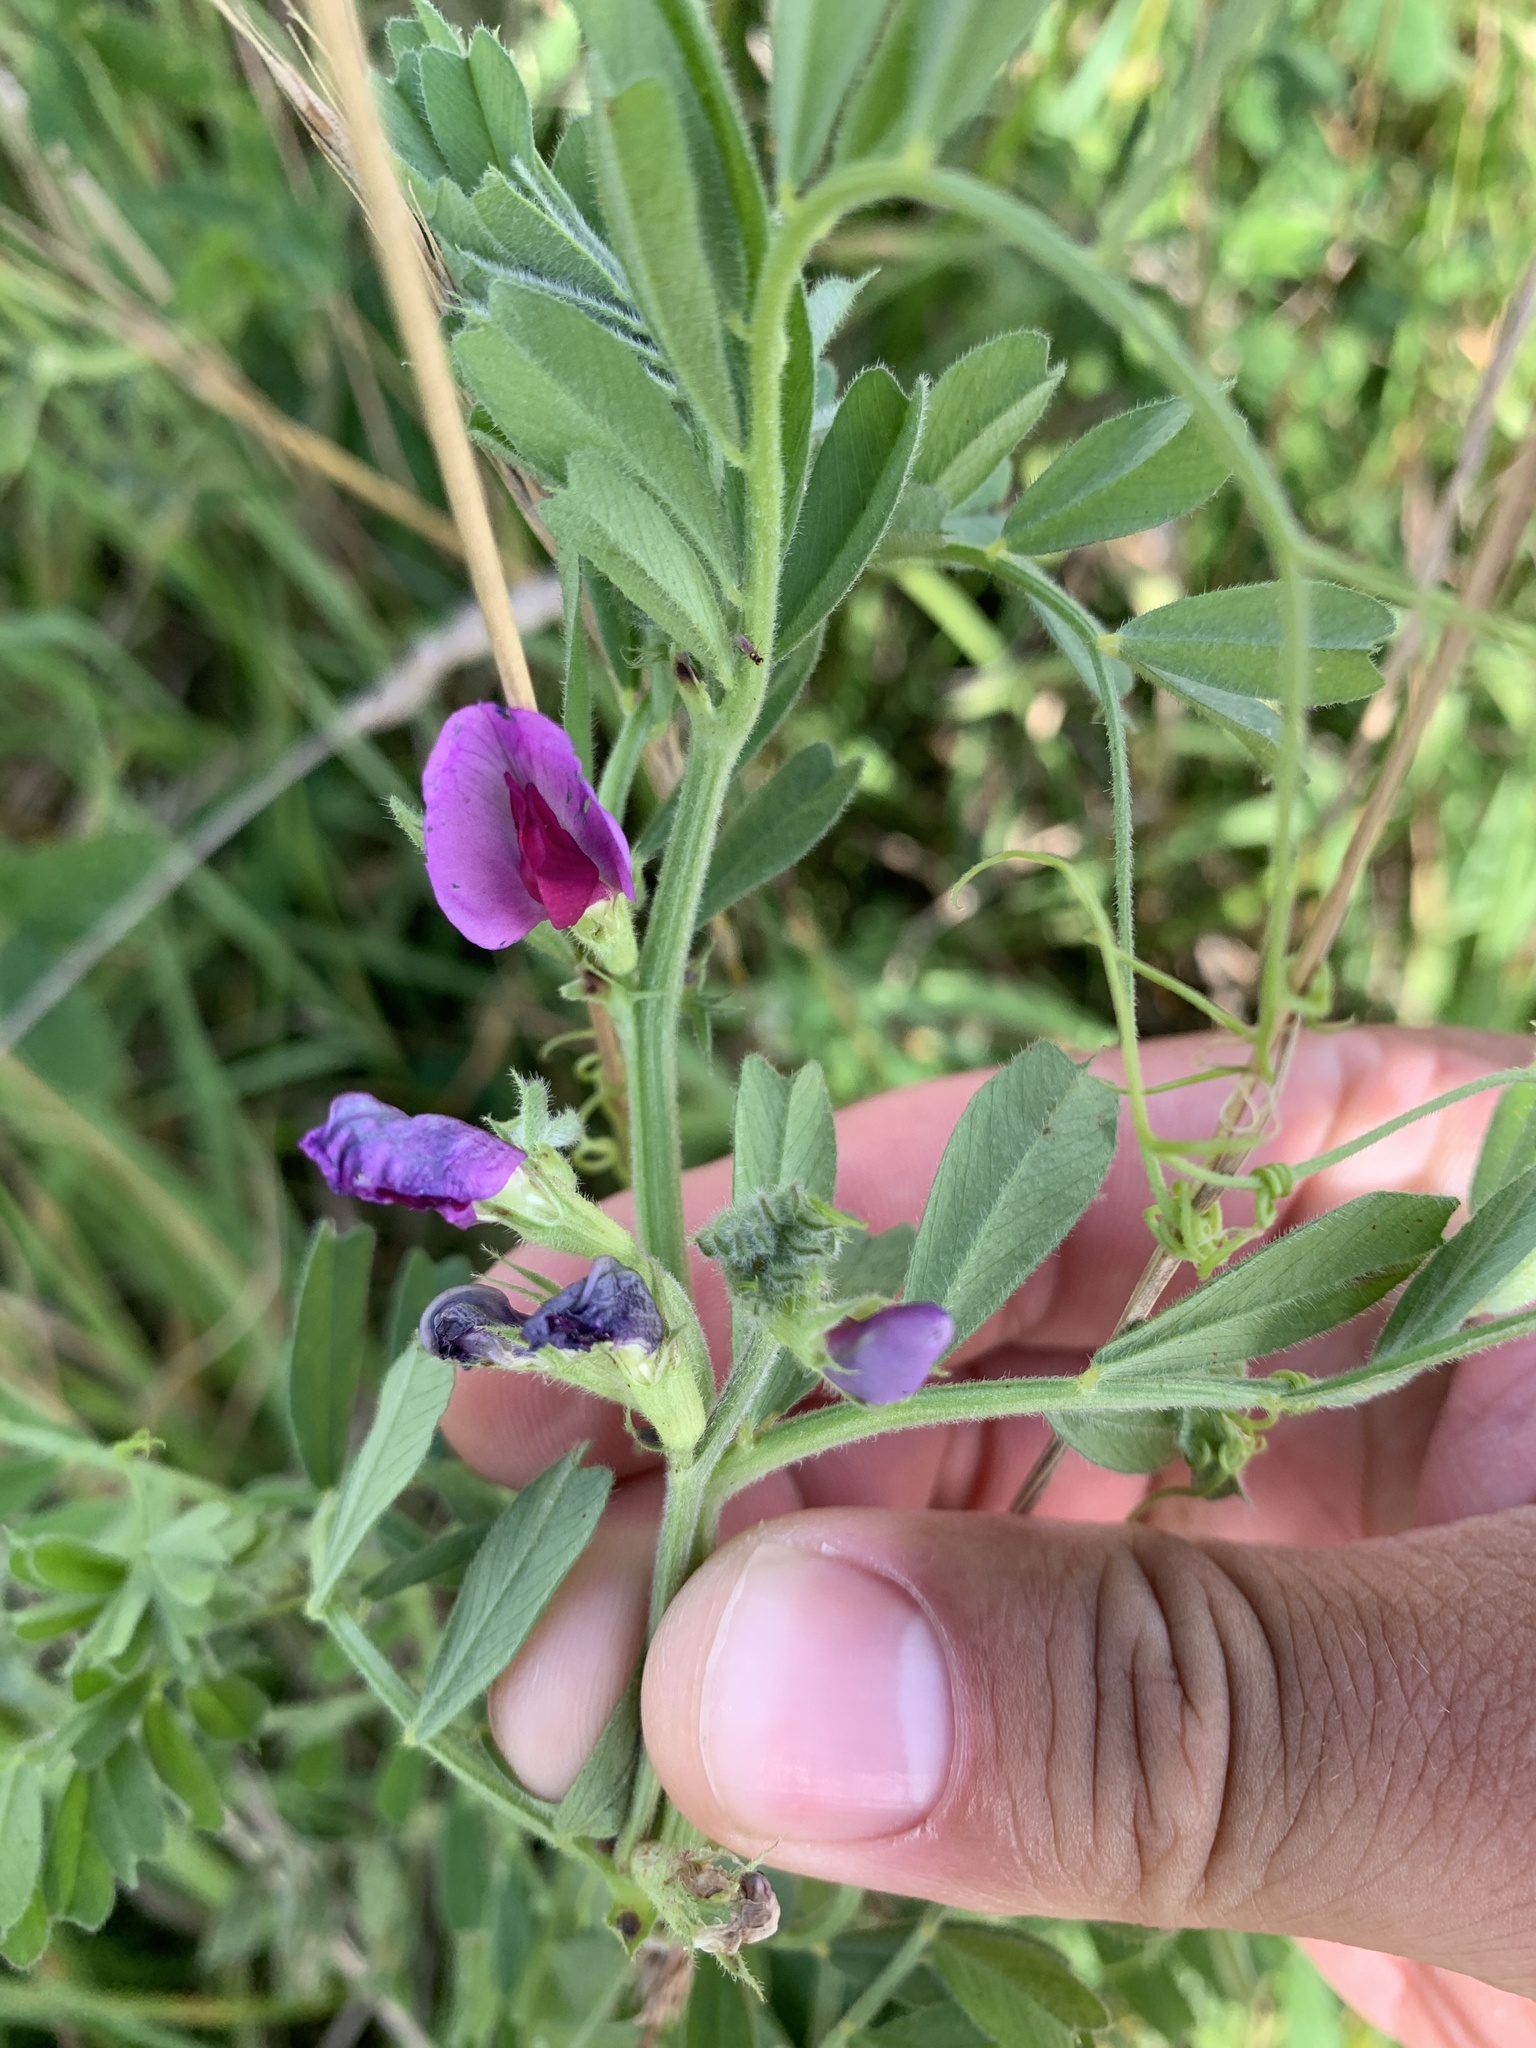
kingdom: Plantae
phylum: Tracheophyta
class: Magnoliopsida
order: Fabales
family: Fabaceae
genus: Vicia
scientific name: Vicia sativa
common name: Garden vetch
